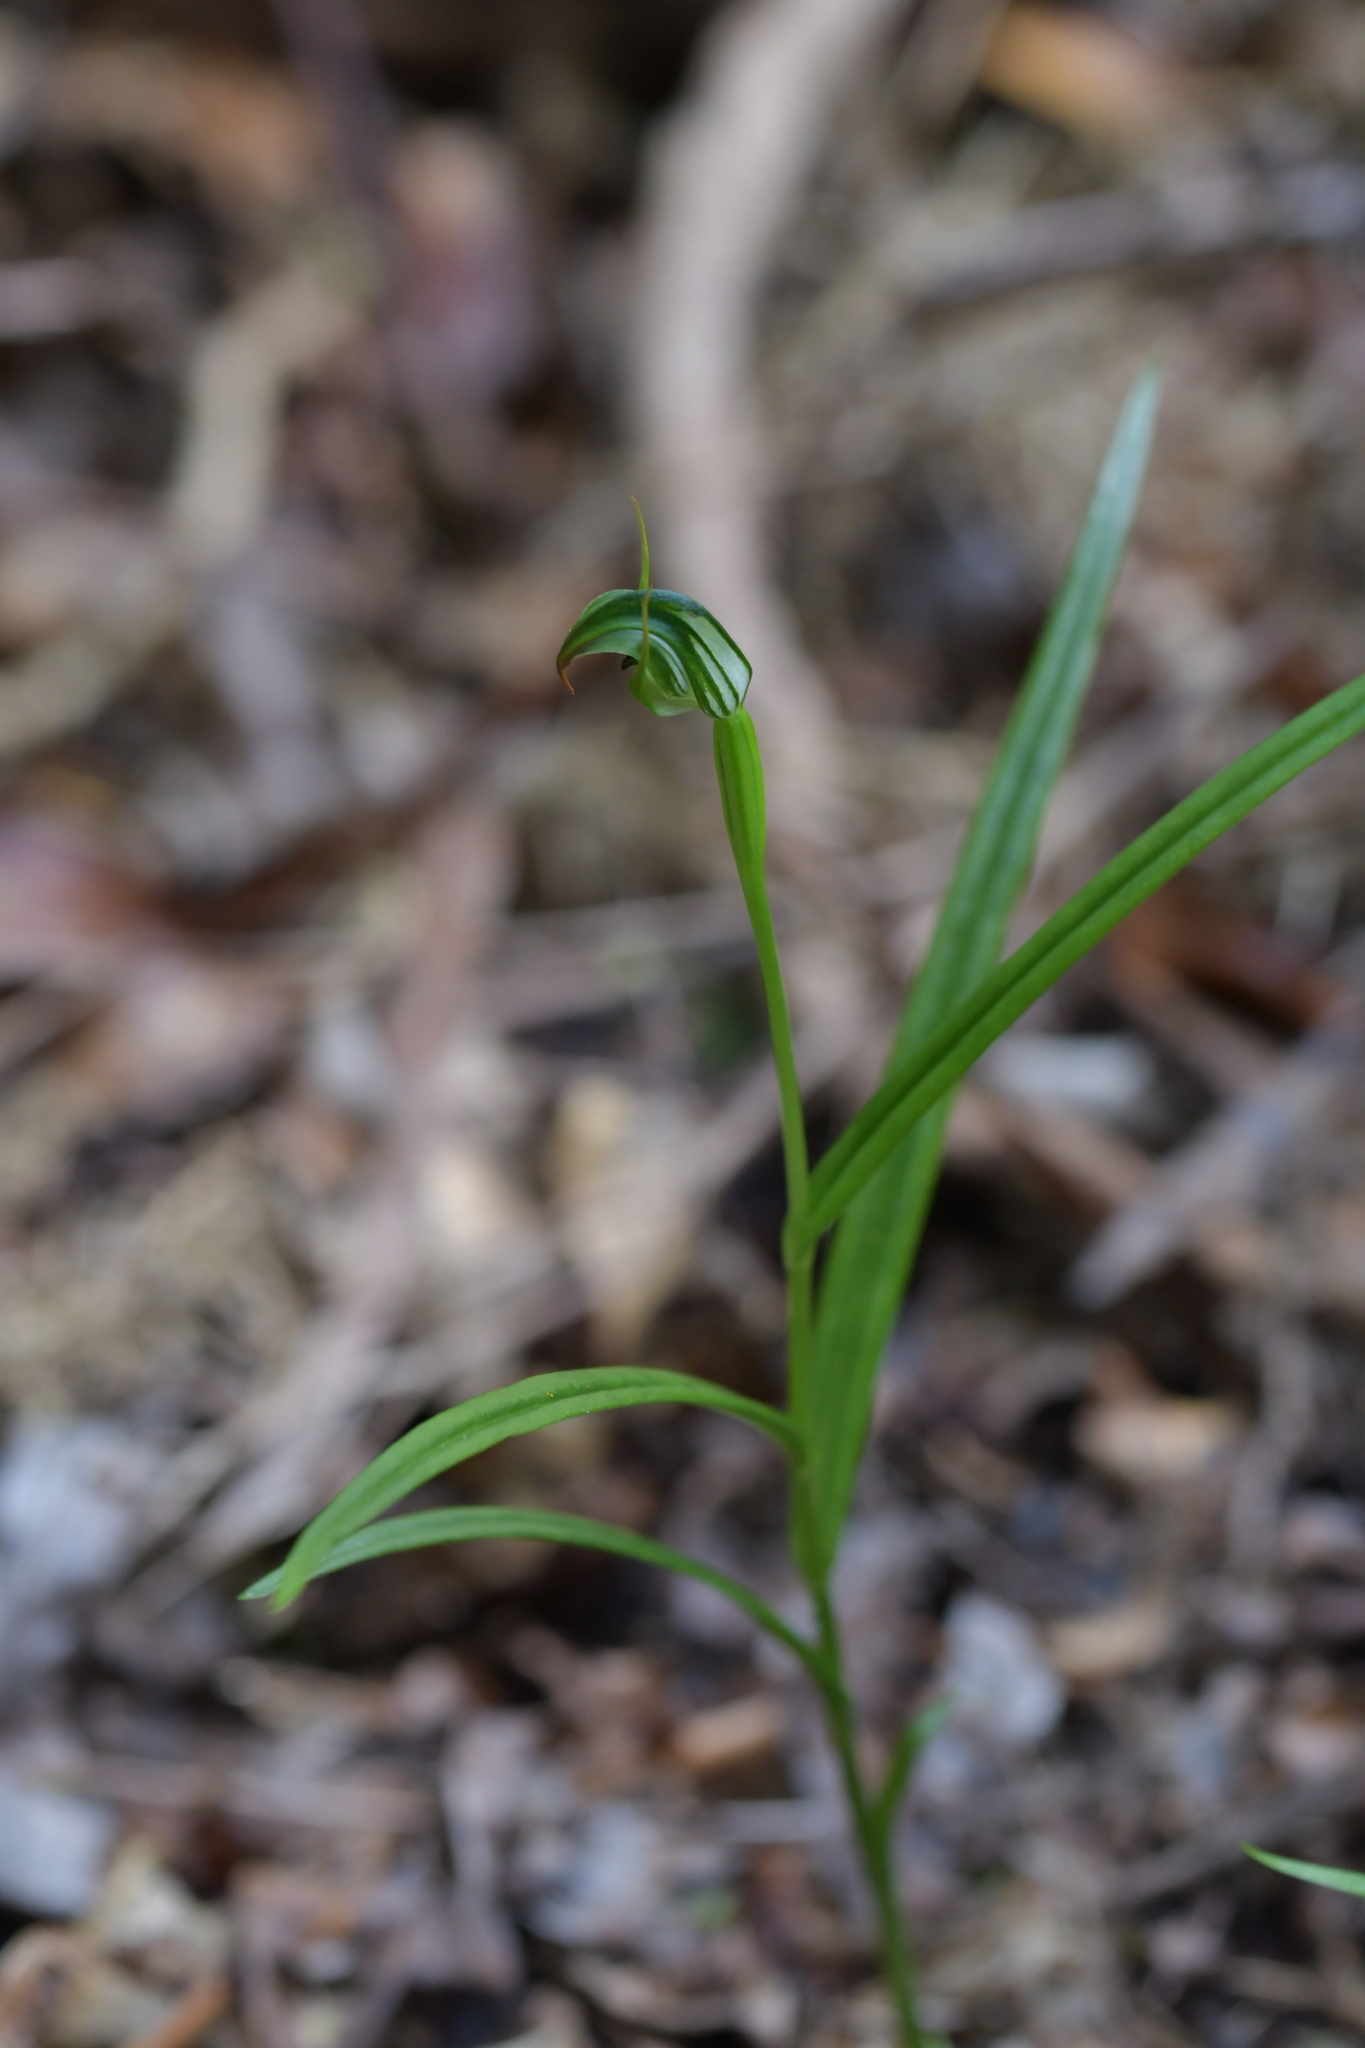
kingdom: Plantae
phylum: Tracheophyta
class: Liliopsida
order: Asparagales
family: Orchidaceae
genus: Pterostylis
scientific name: Pterostylis graminea
